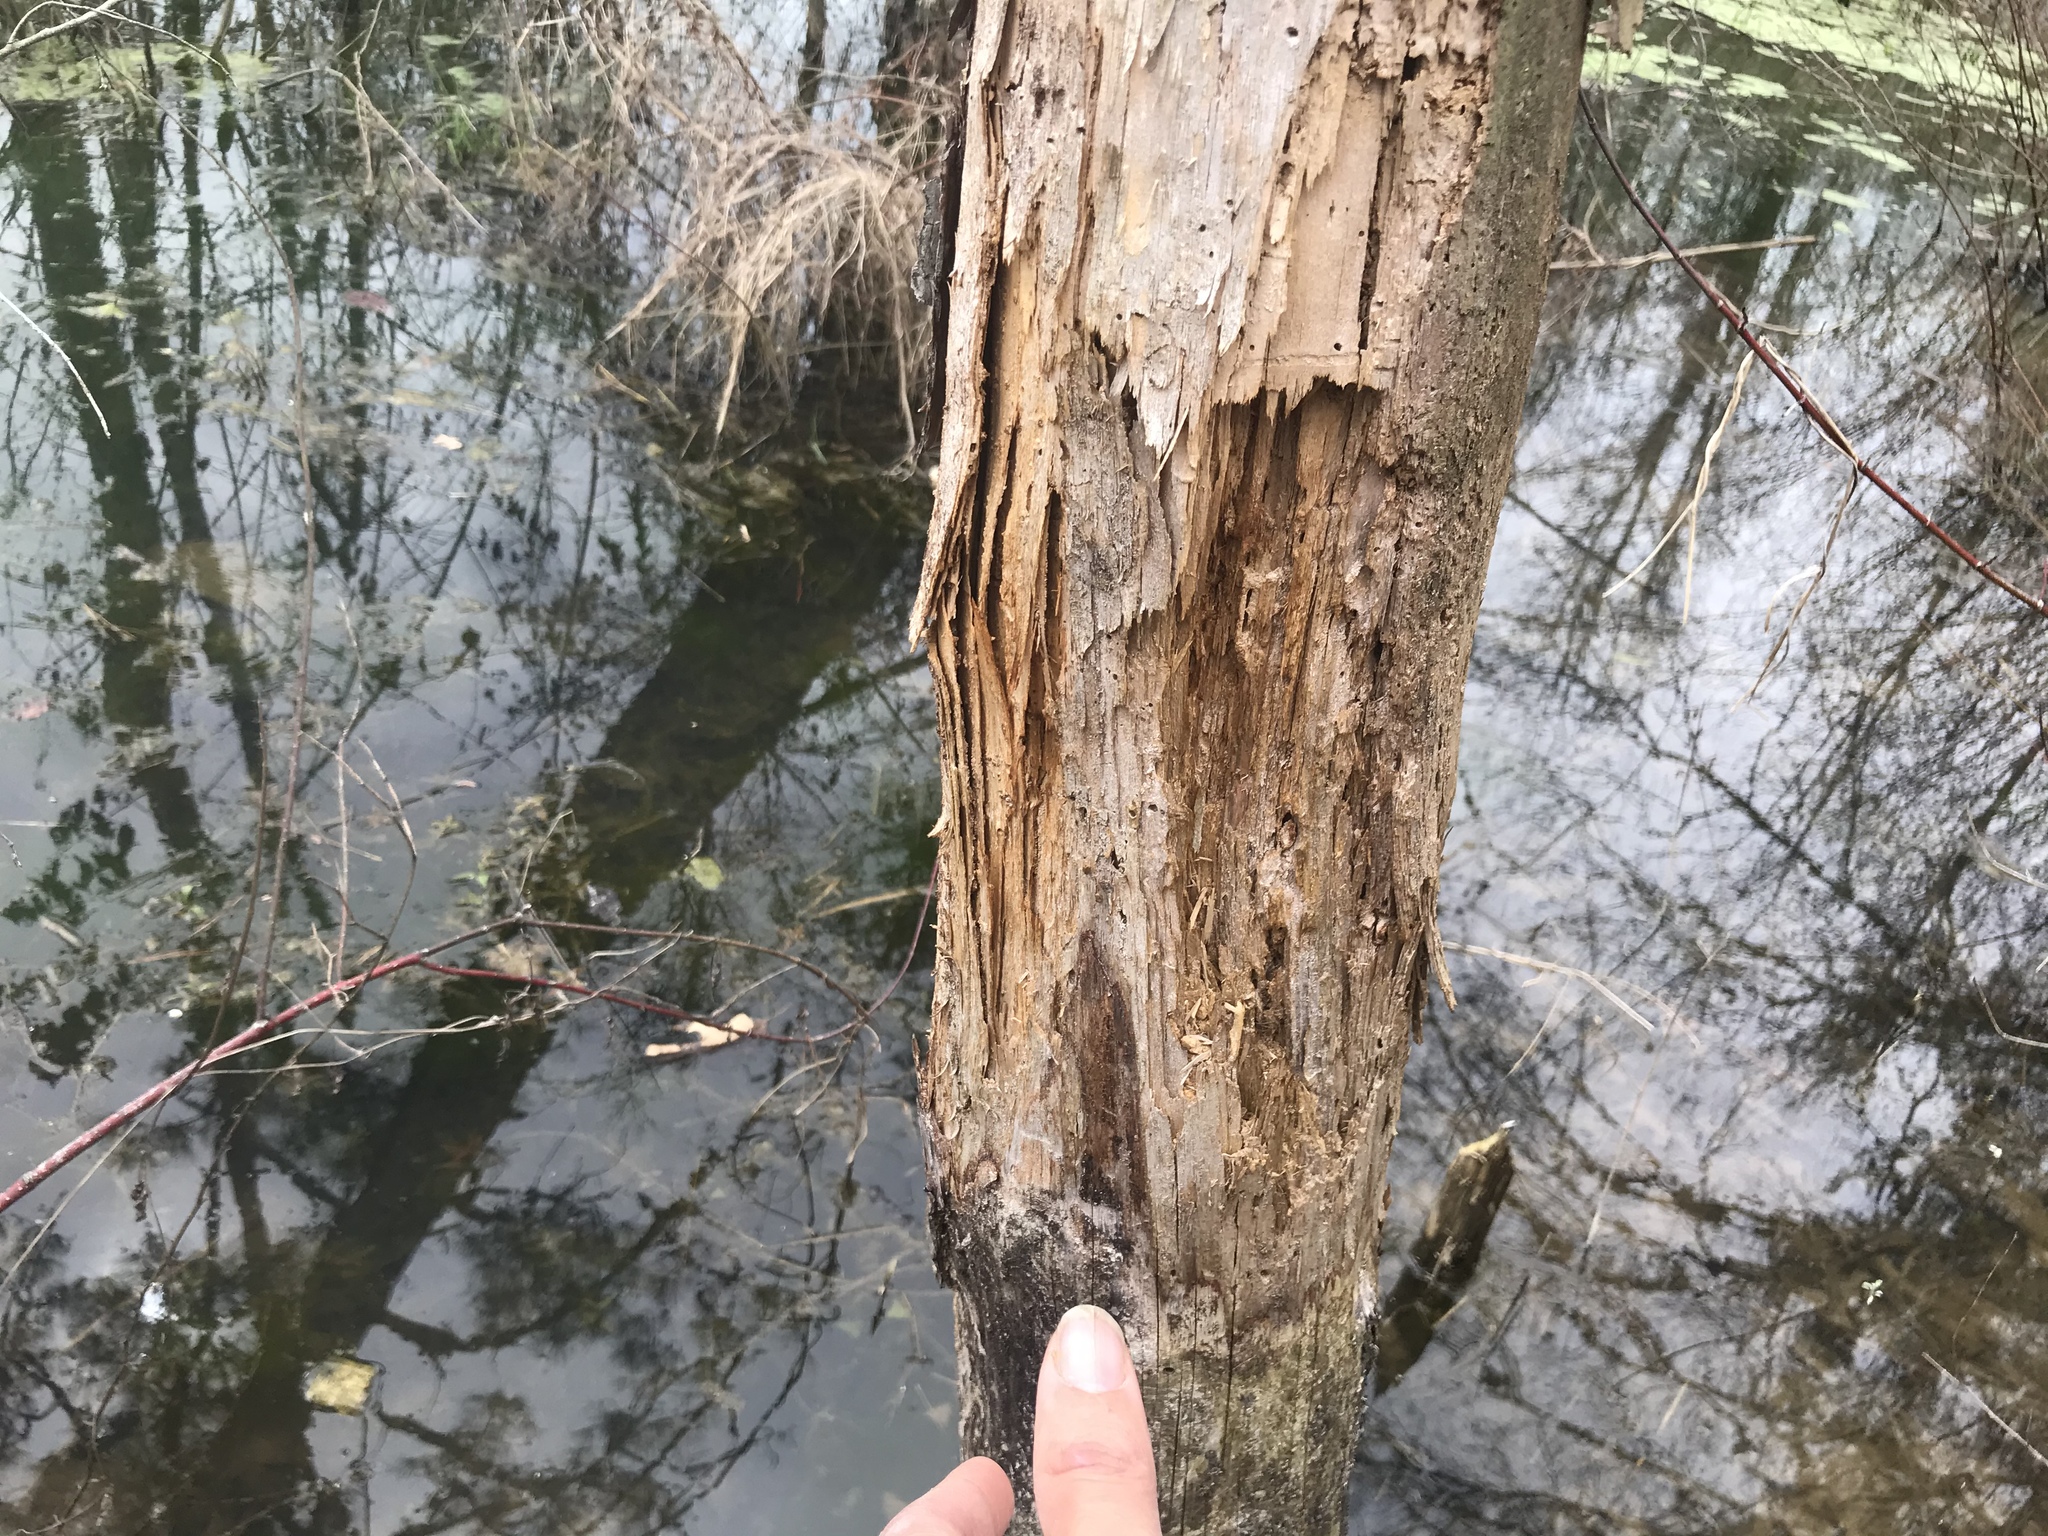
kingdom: Animalia
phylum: Chordata
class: Mammalia
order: Rodentia
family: Castoridae
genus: Castor
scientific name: Castor canadensis
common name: American beaver
